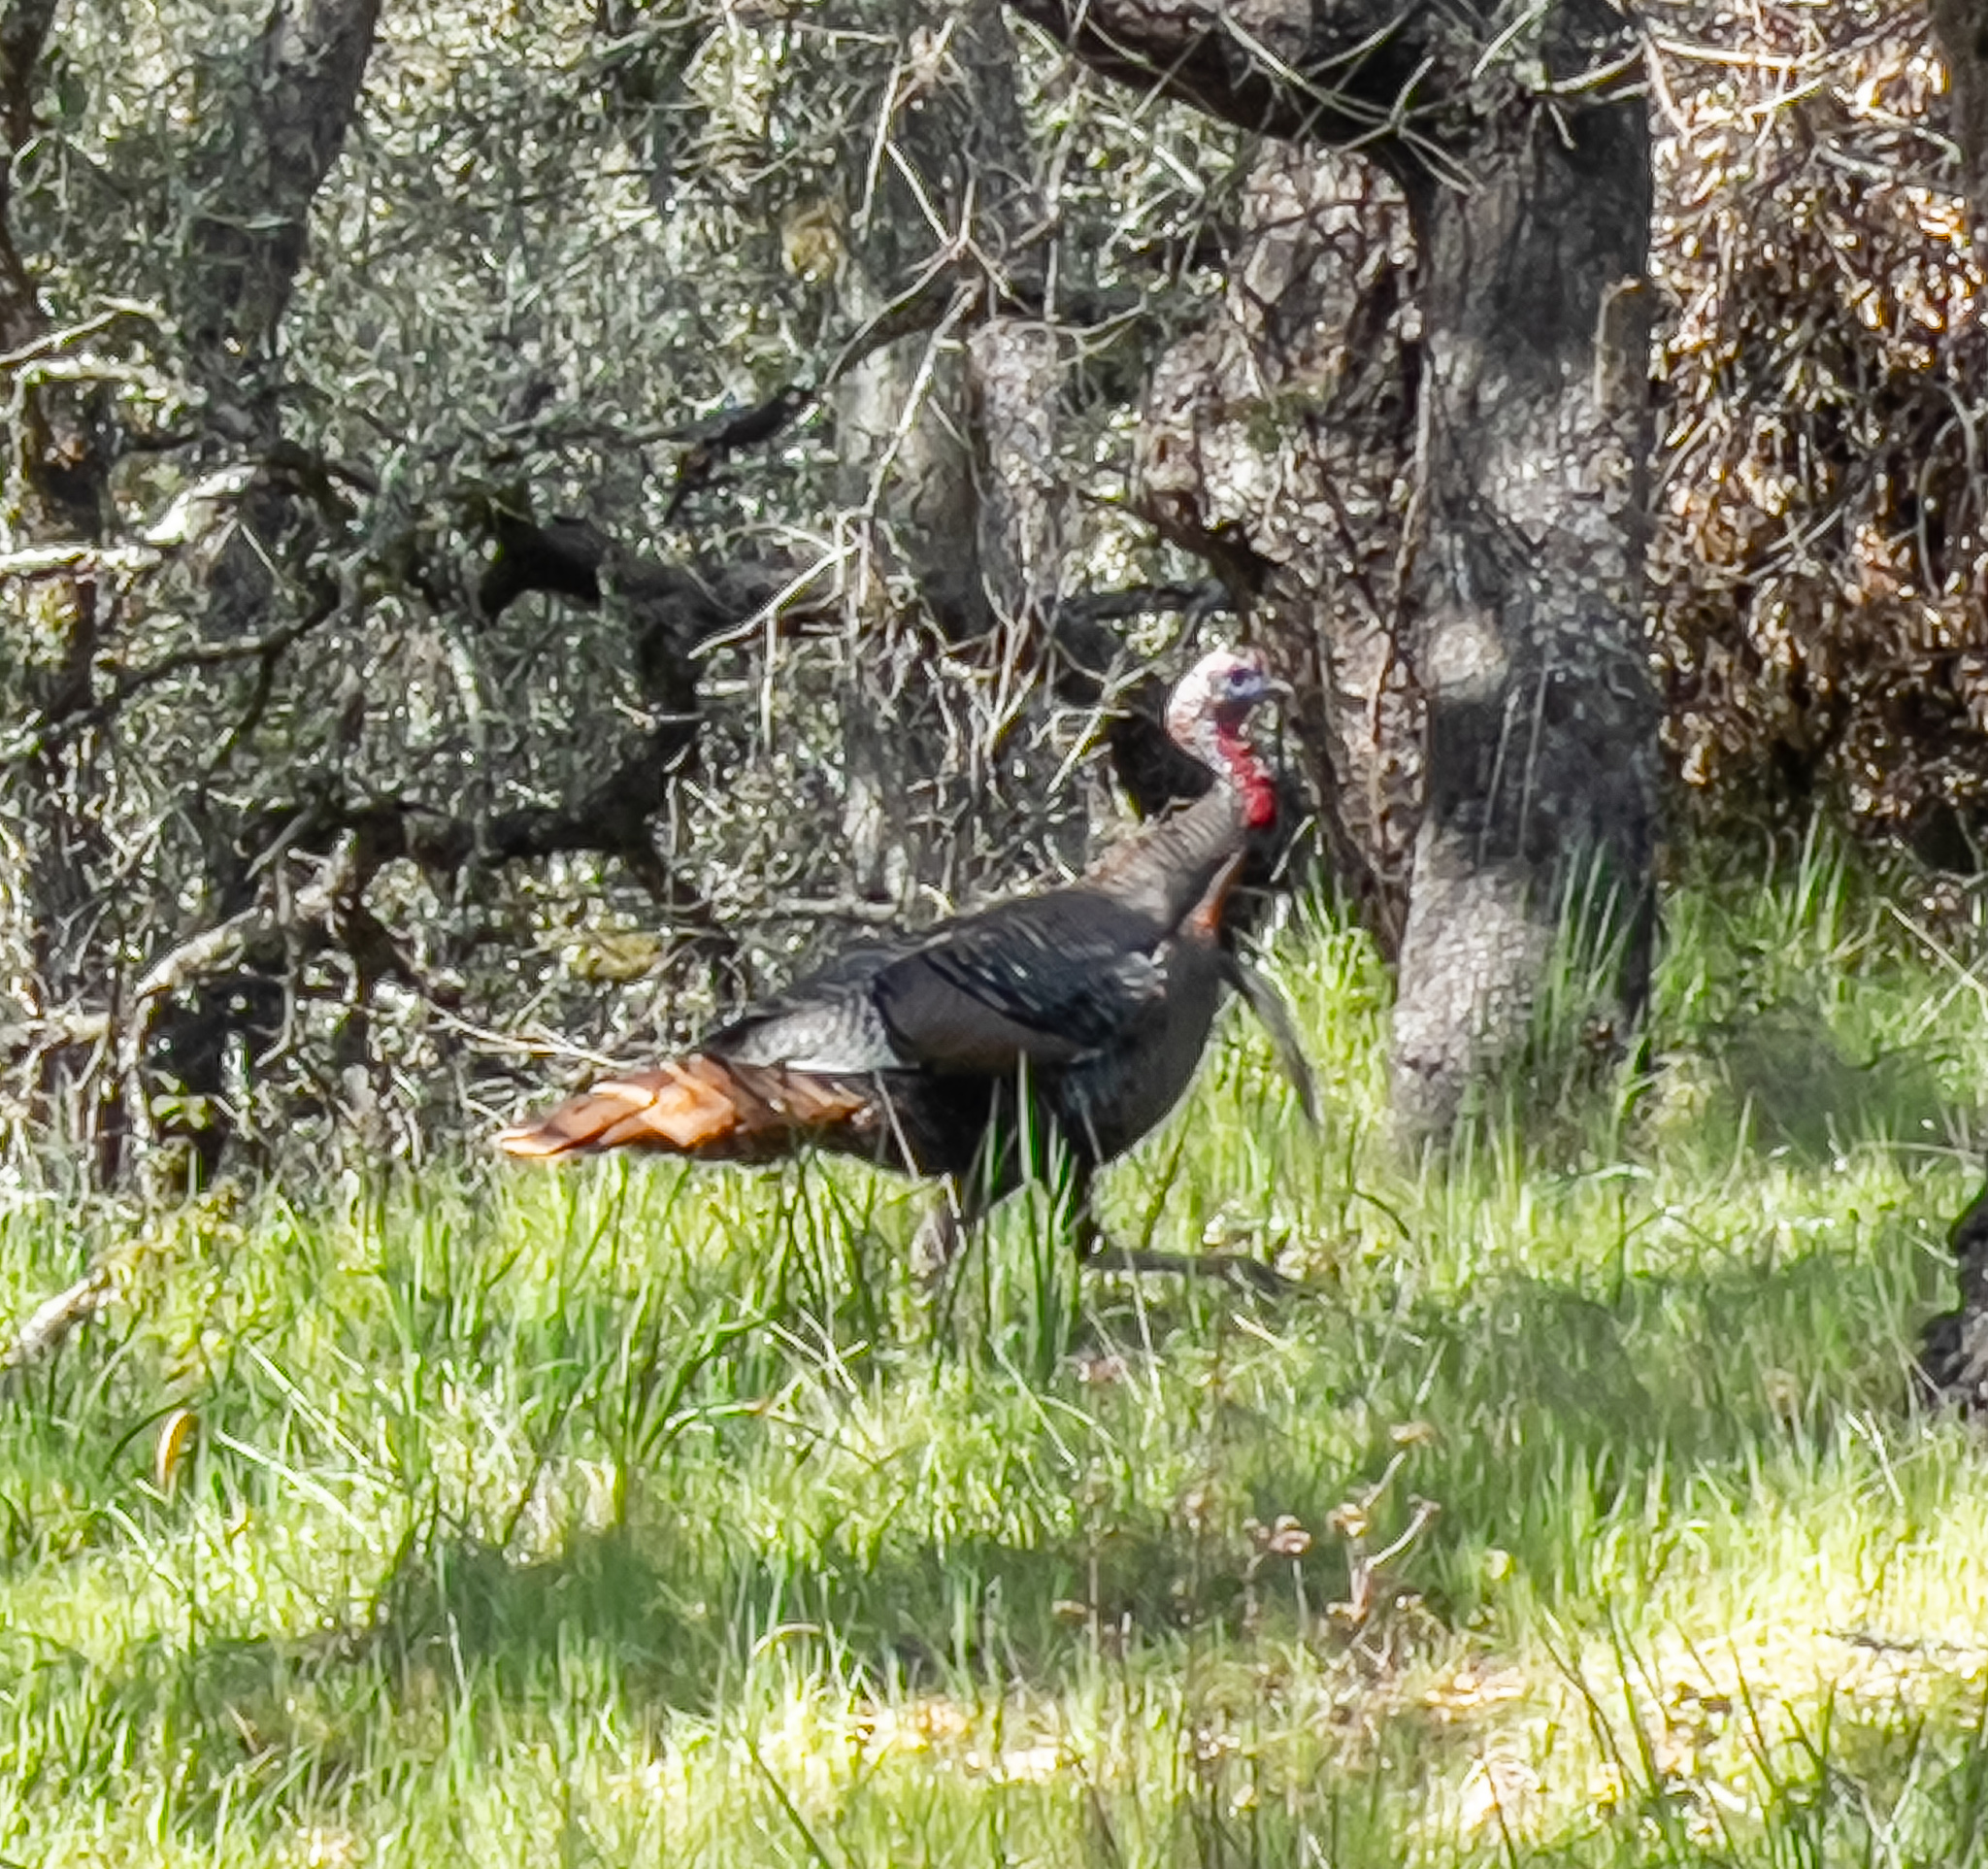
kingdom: Animalia
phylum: Chordata
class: Aves
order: Galliformes
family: Phasianidae
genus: Meleagris
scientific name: Meleagris gallopavo
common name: Wild turkey
